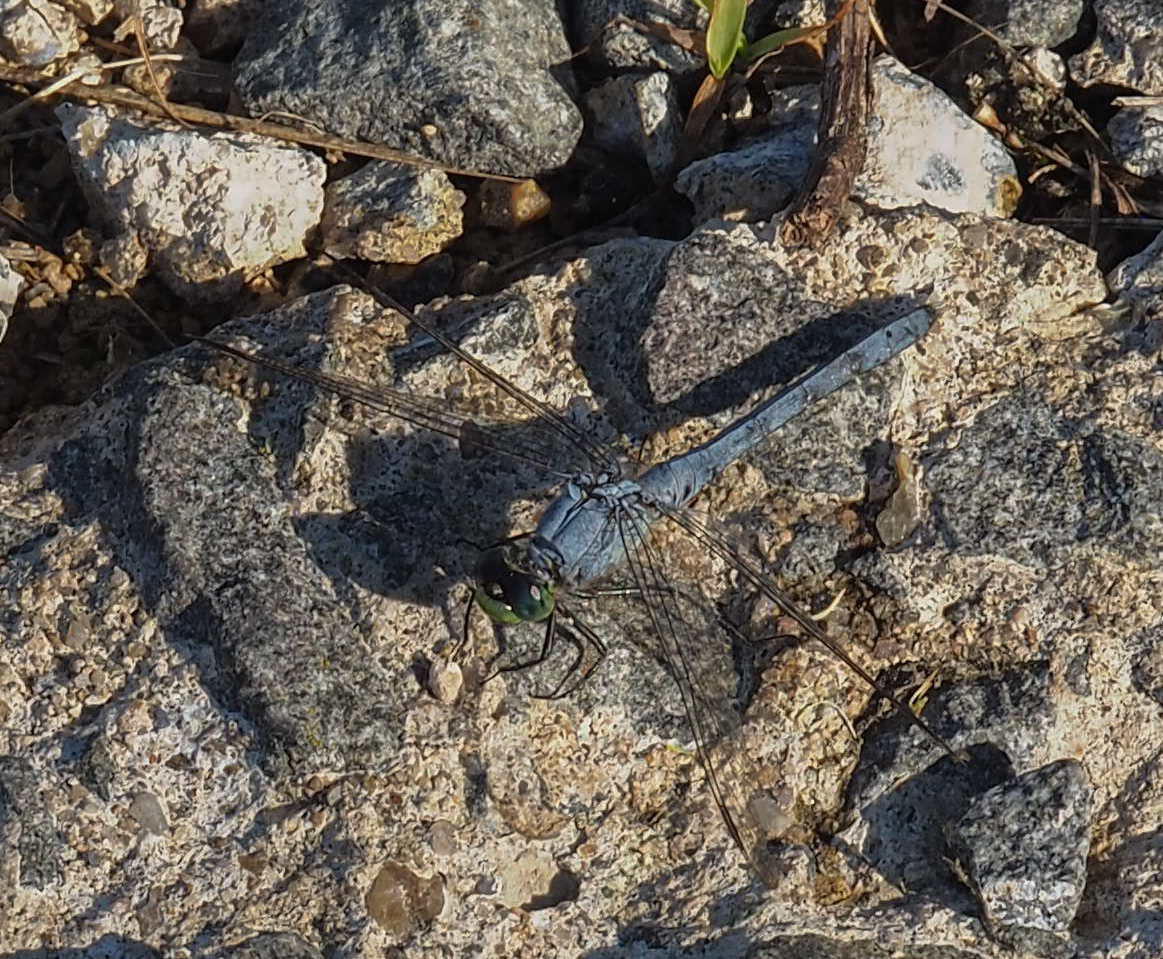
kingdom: Animalia
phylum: Arthropoda
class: Insecta
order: Odonata
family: Libellulidae
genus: Erythemis
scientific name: Erythemis simplicicollis
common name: Eastern pondhawk
